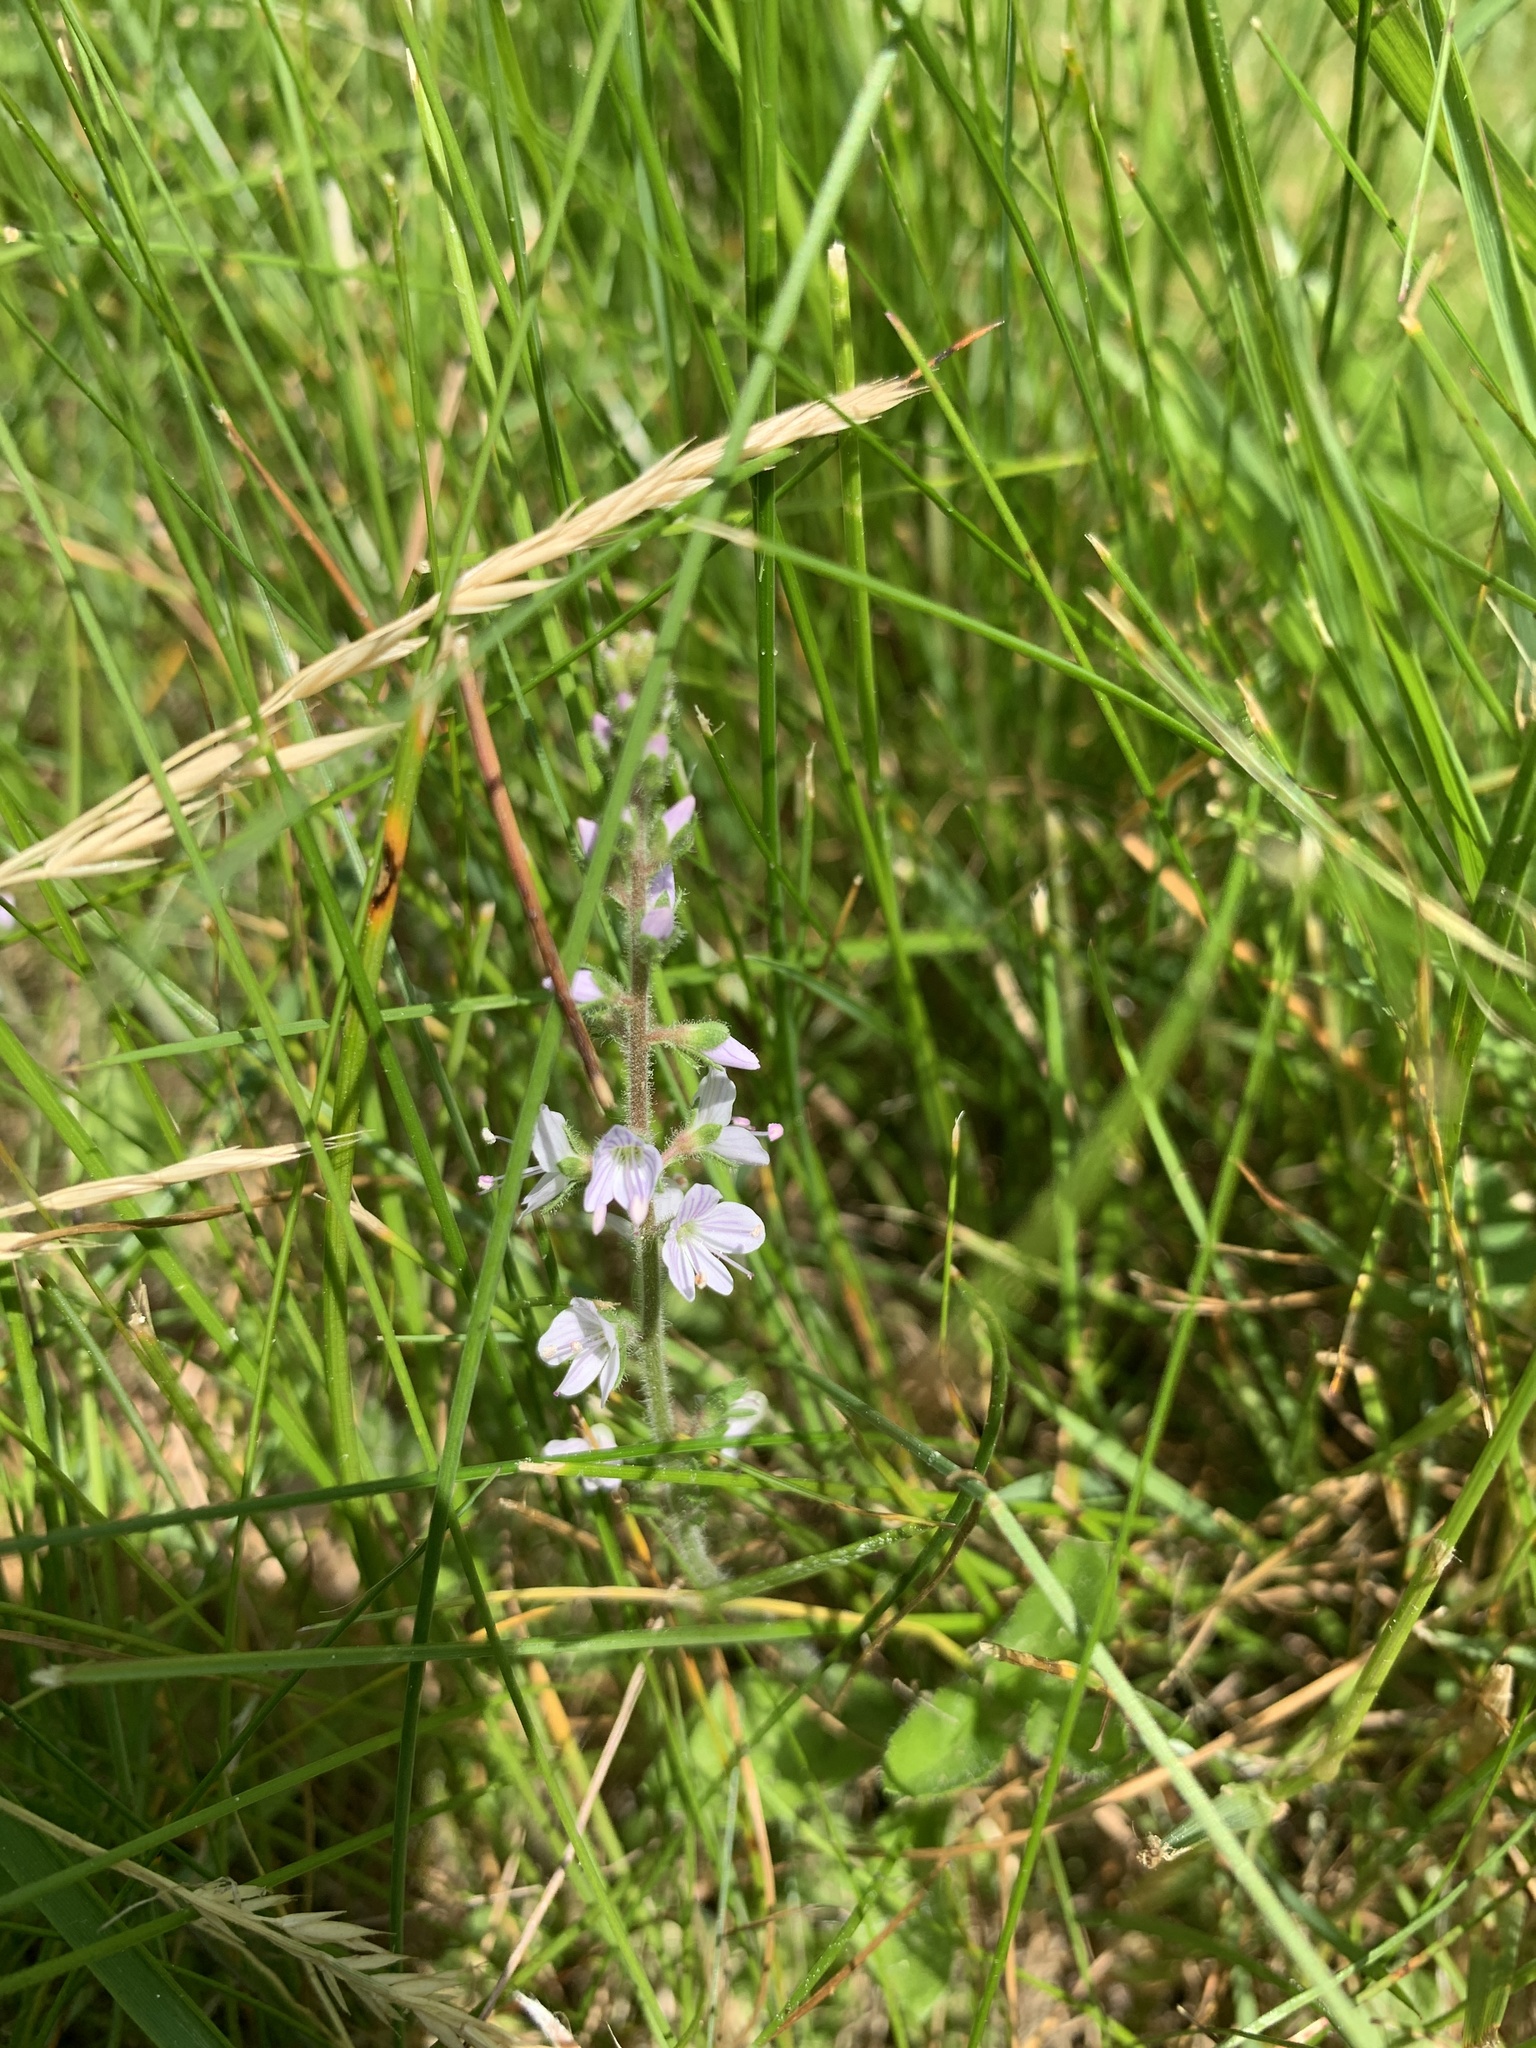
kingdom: Plantae
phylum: Tracheophyta
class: Magnoliopsida
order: Lamiales
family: Plantaginaceae
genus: Veronica
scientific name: Veronica officinalis
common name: Common speedwell
